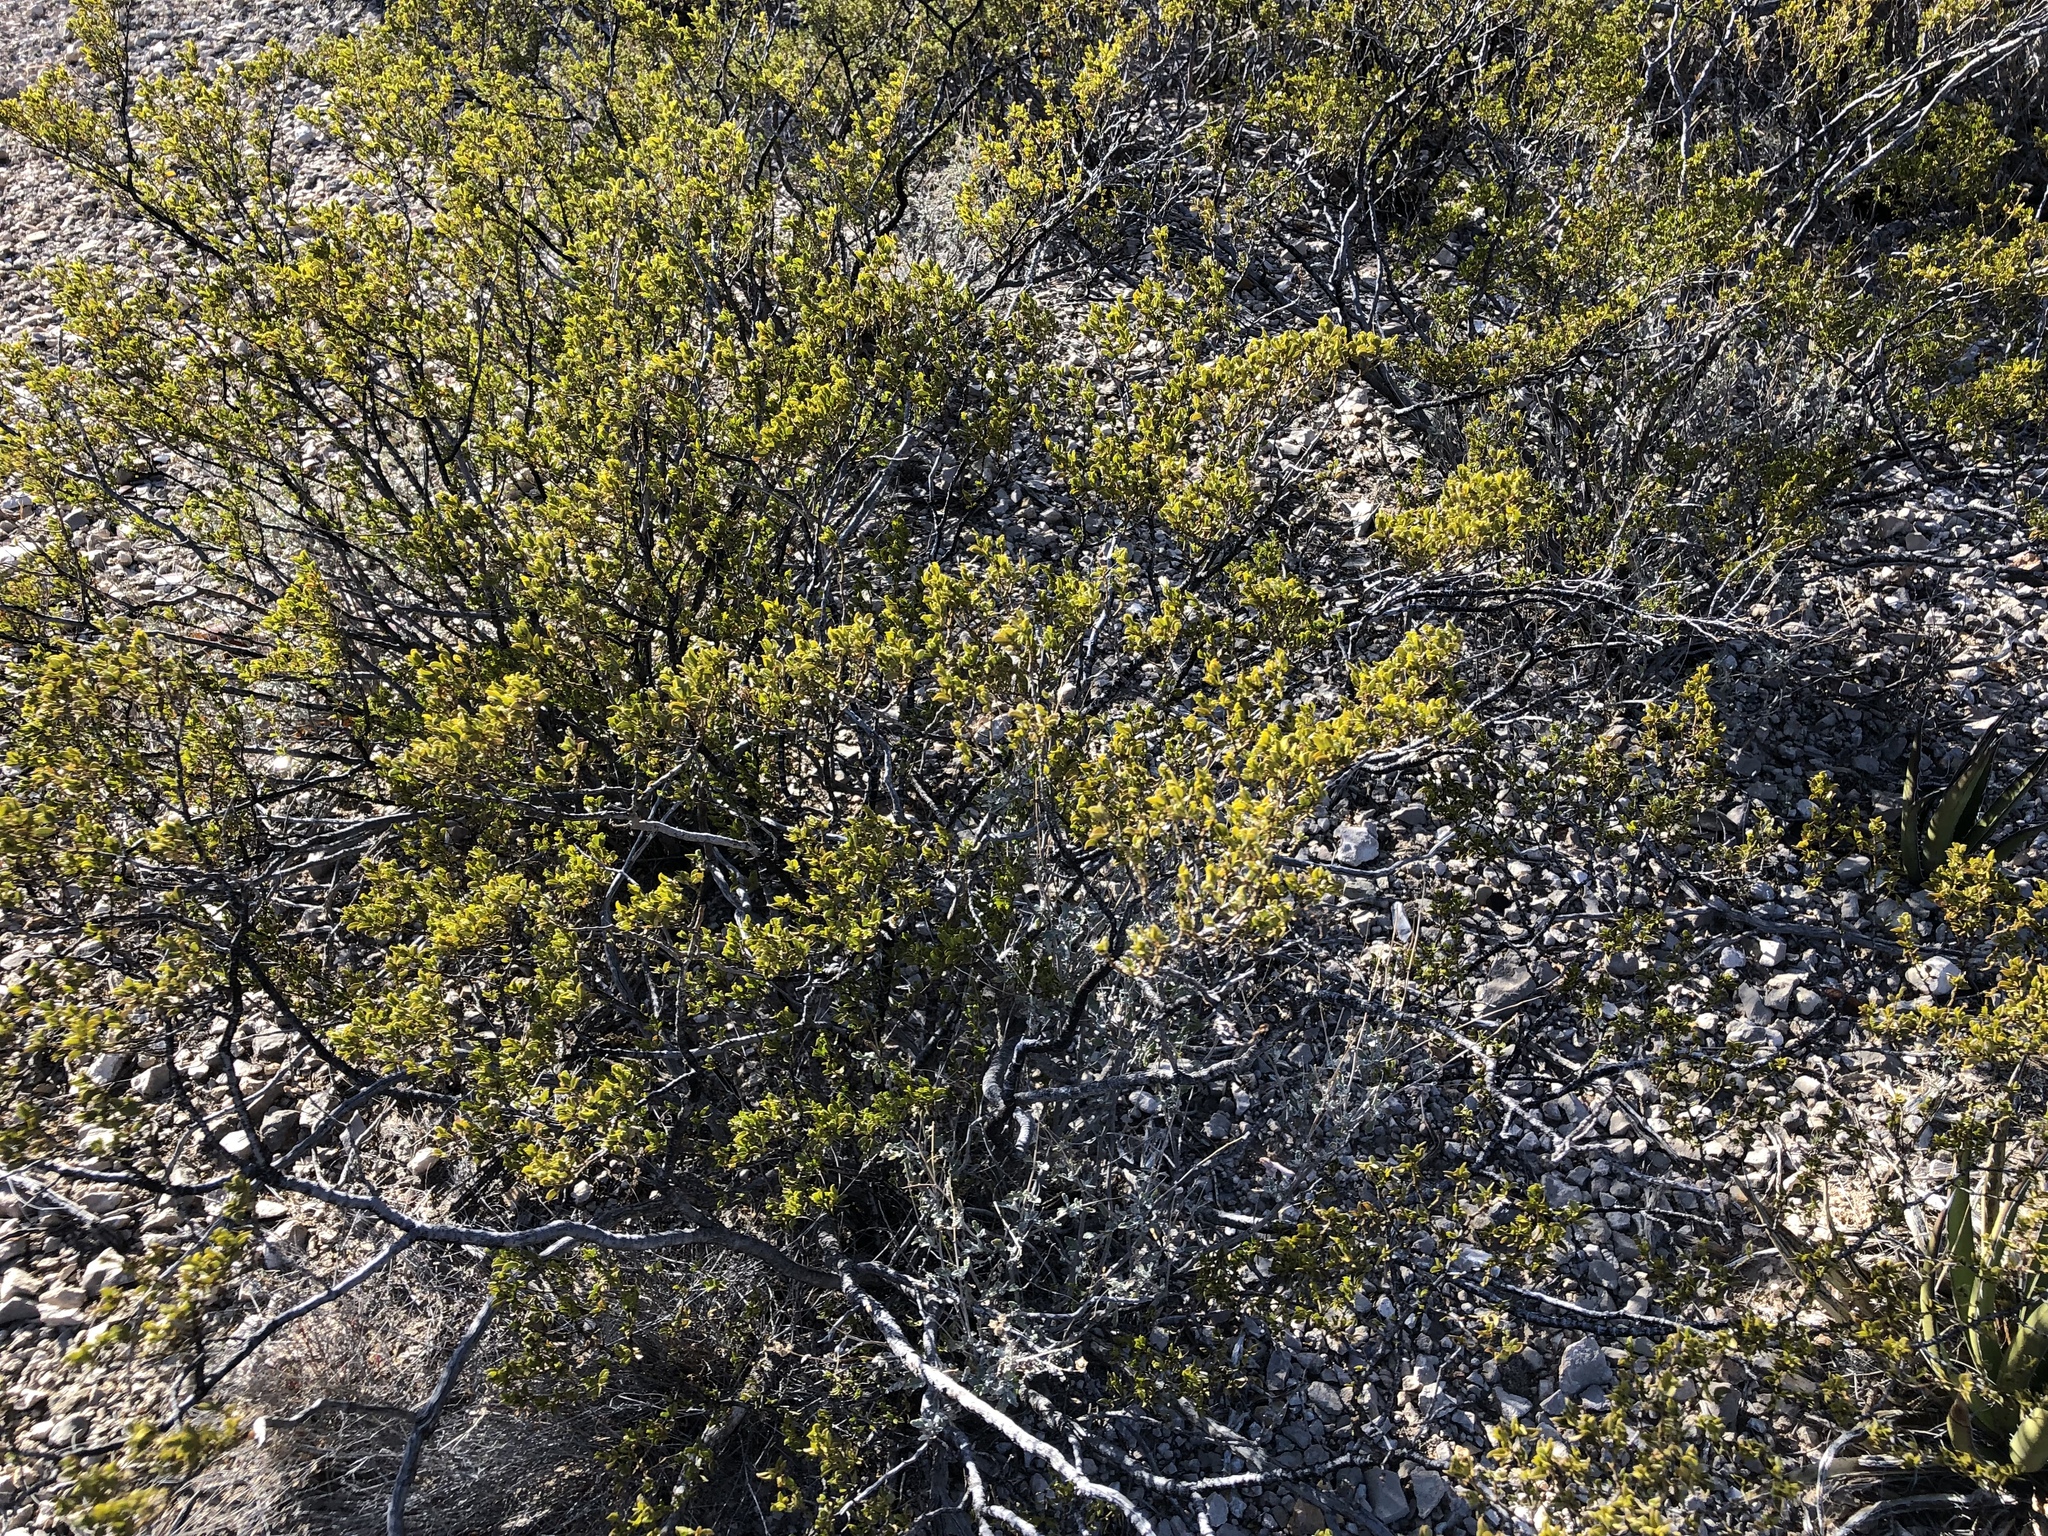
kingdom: Plantae
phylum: Tracheophyta
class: Magnoliopsida
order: Zygophyllales
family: Zygophyllaceae
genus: Larrea
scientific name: Larrea tridentata
